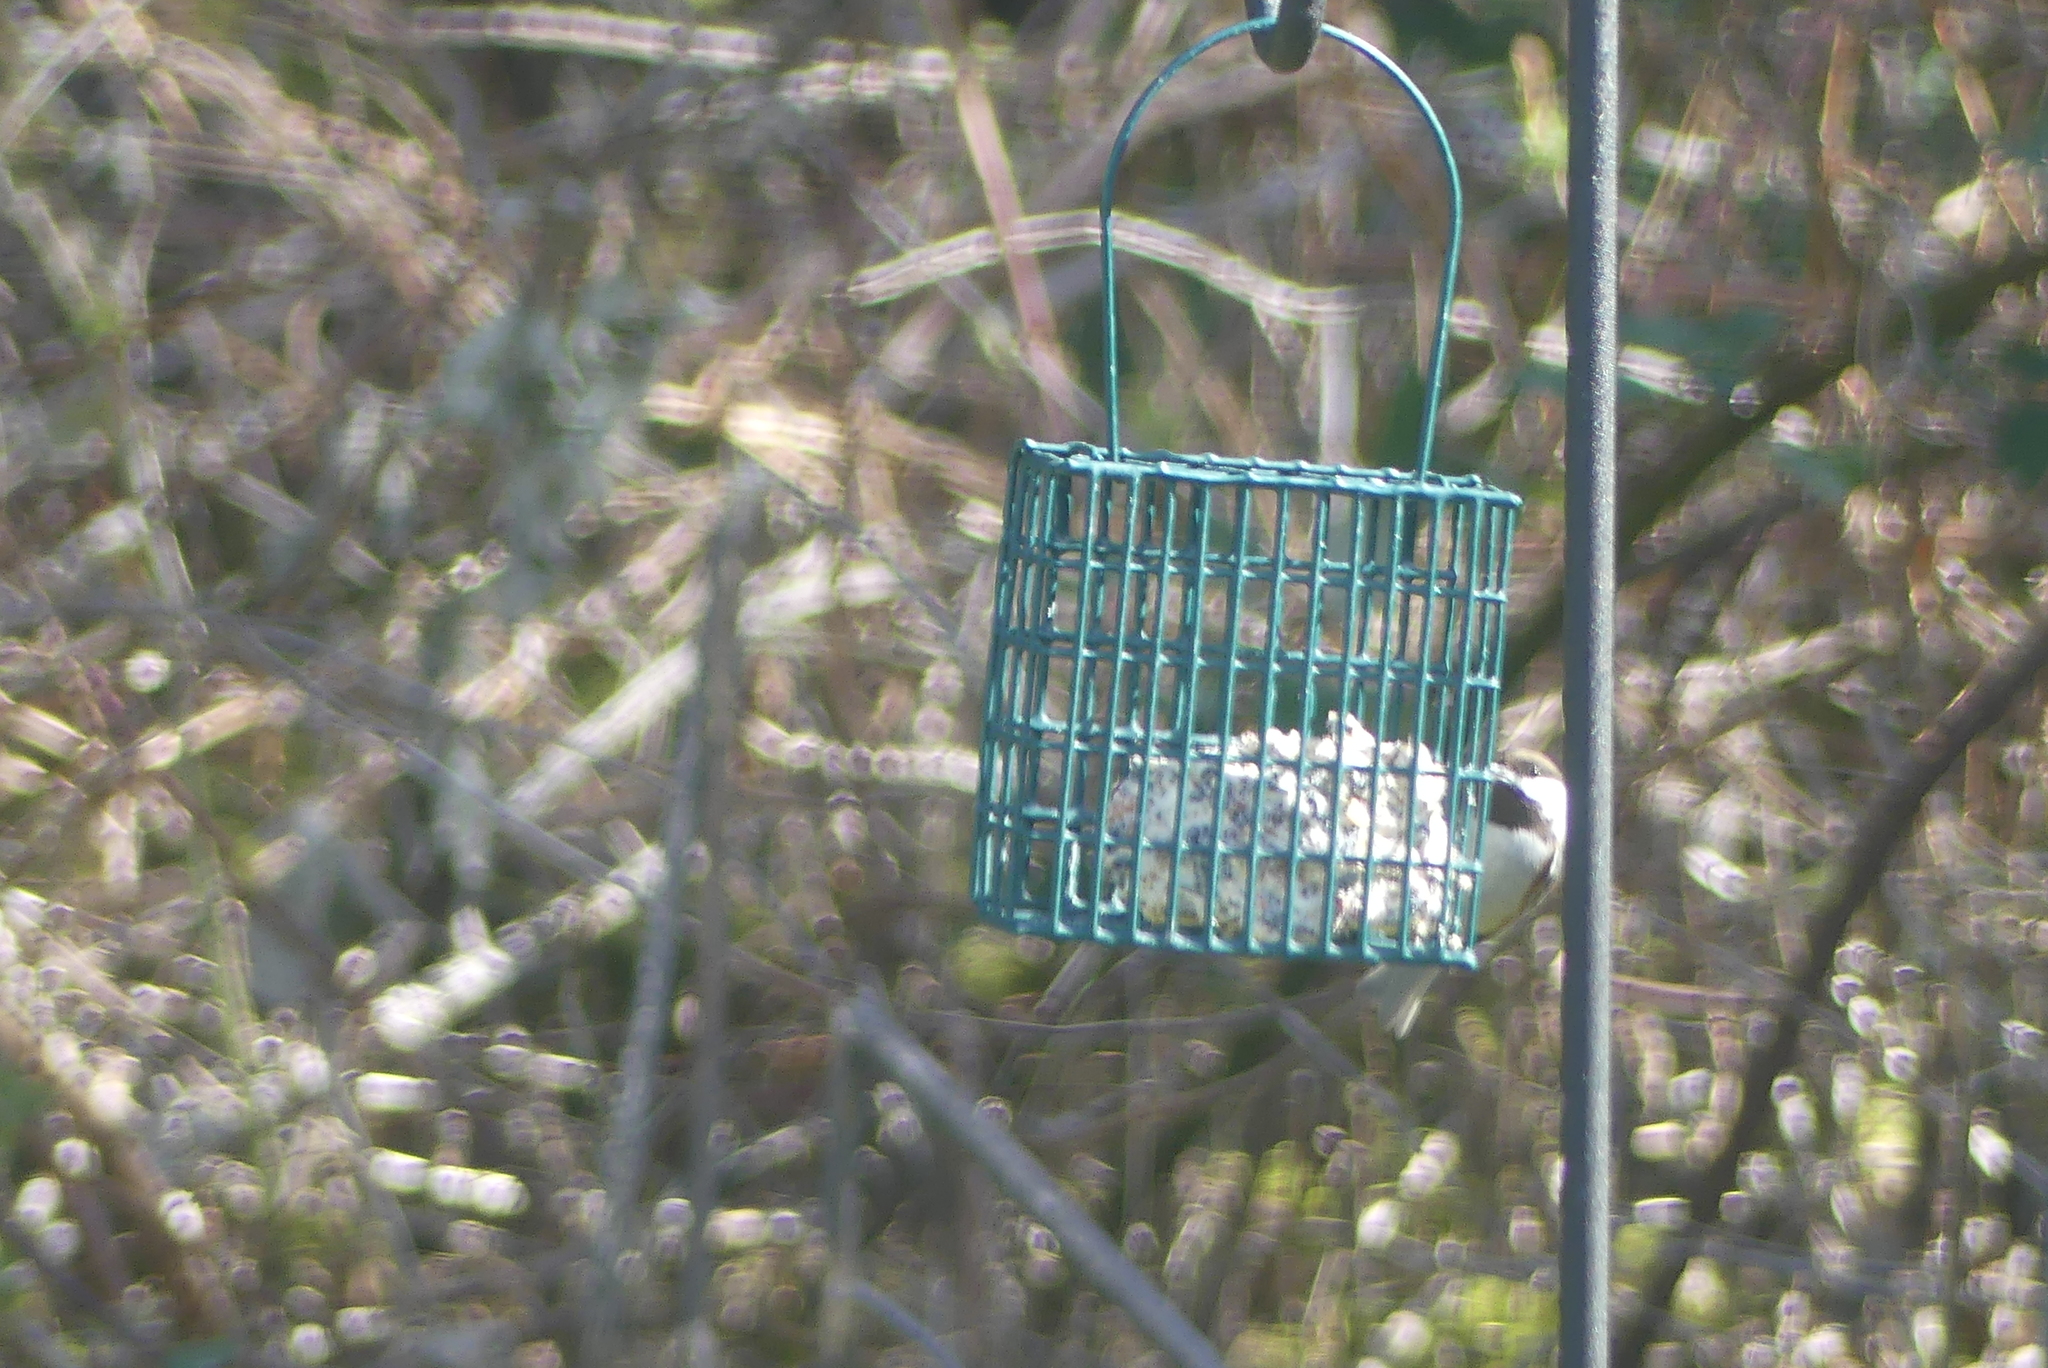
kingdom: Animalia
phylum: Chordata
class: Aves
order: Passeriformes
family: Paridae
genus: Poecile
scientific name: Poecile rufescens
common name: Chestnut-backed chickadee
